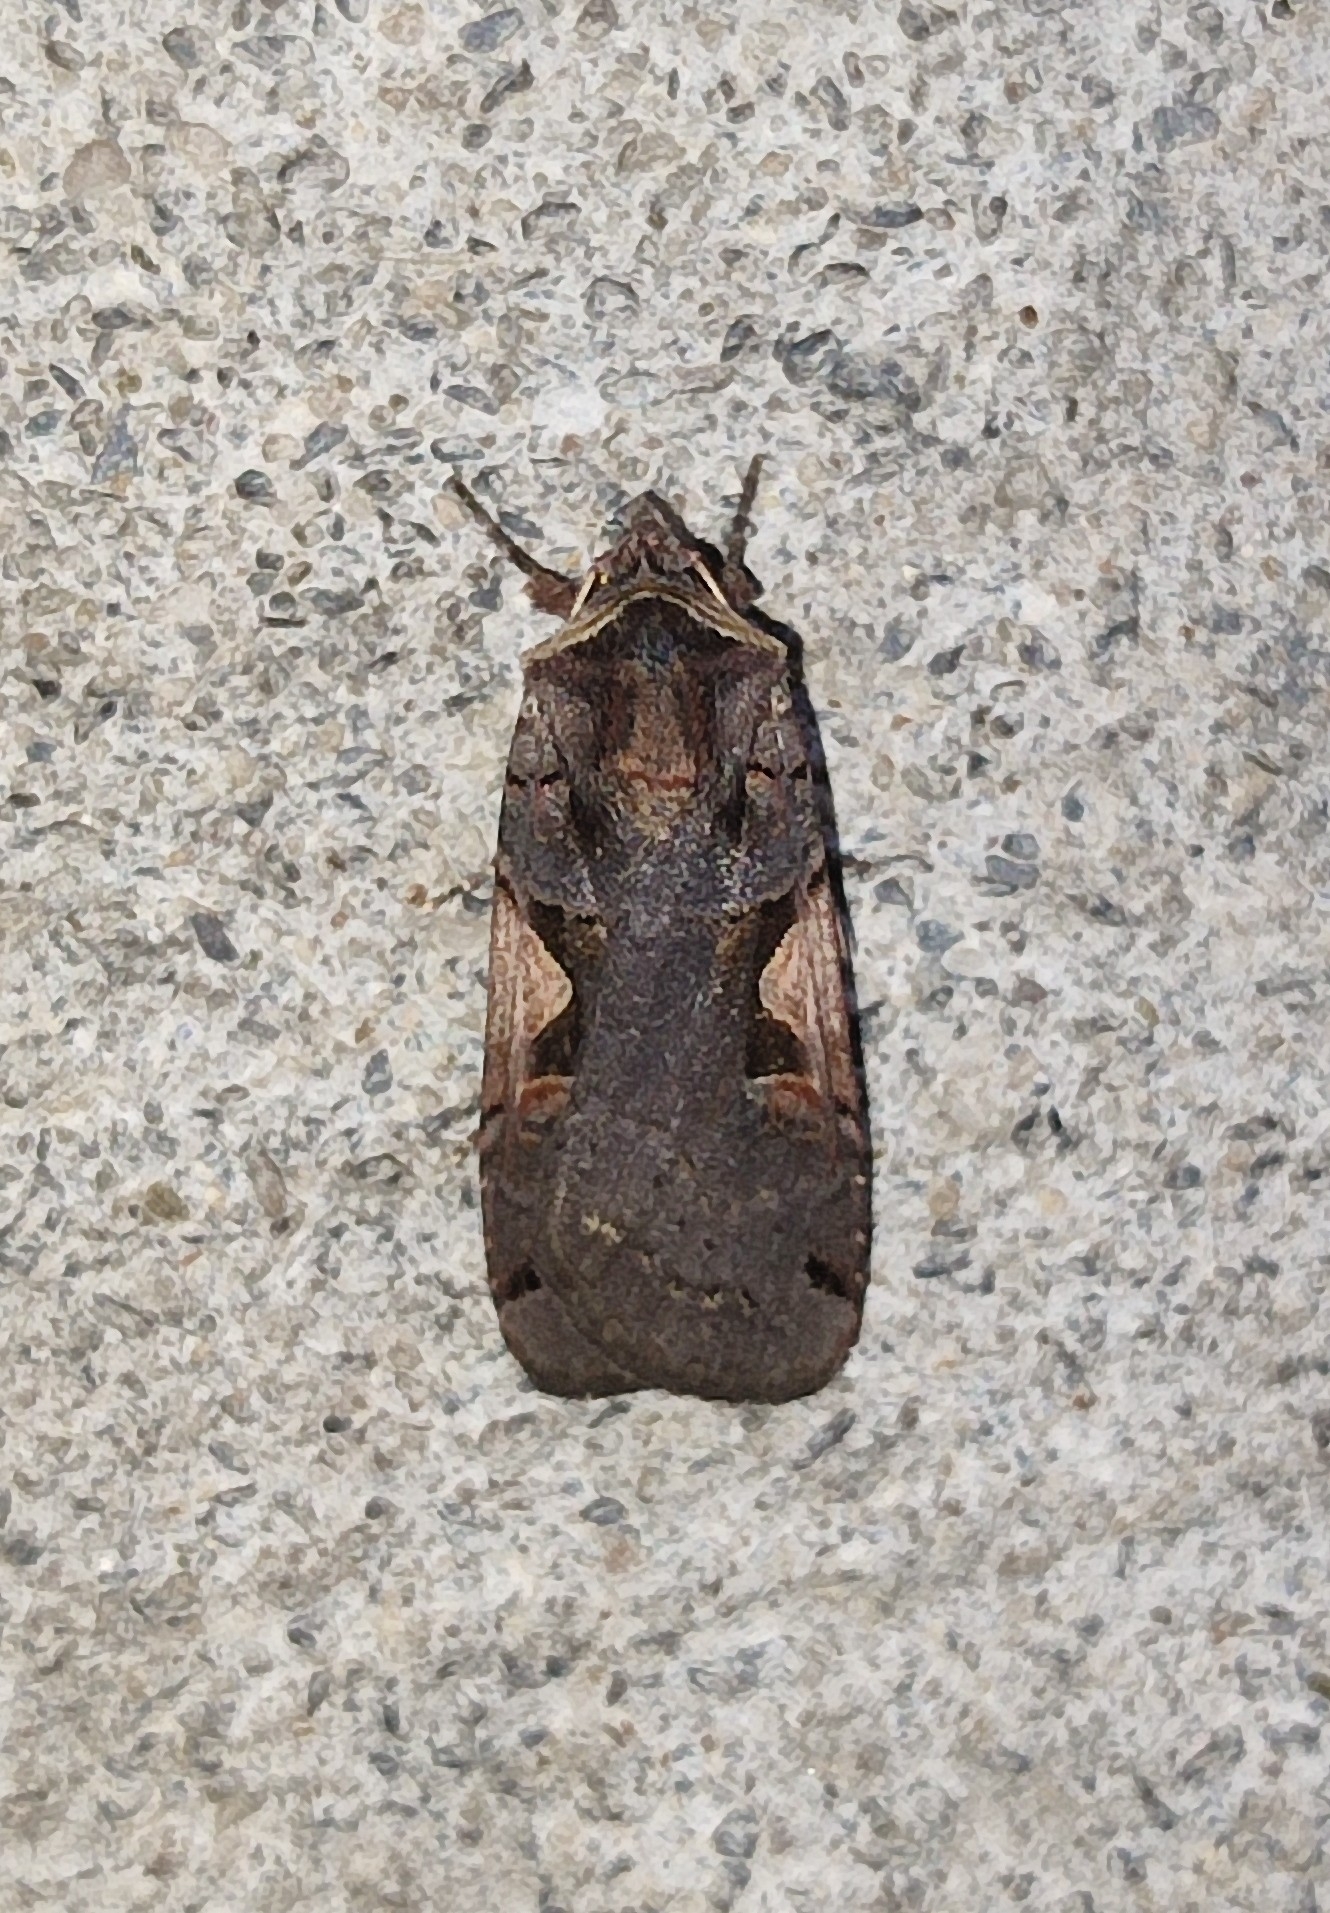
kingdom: Animalia
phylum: Arthropoda
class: Insecta
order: Lepidoptera
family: Noctuidae
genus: Xestia
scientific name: Xestia c-nigrum
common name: Setaceous hebrew character
